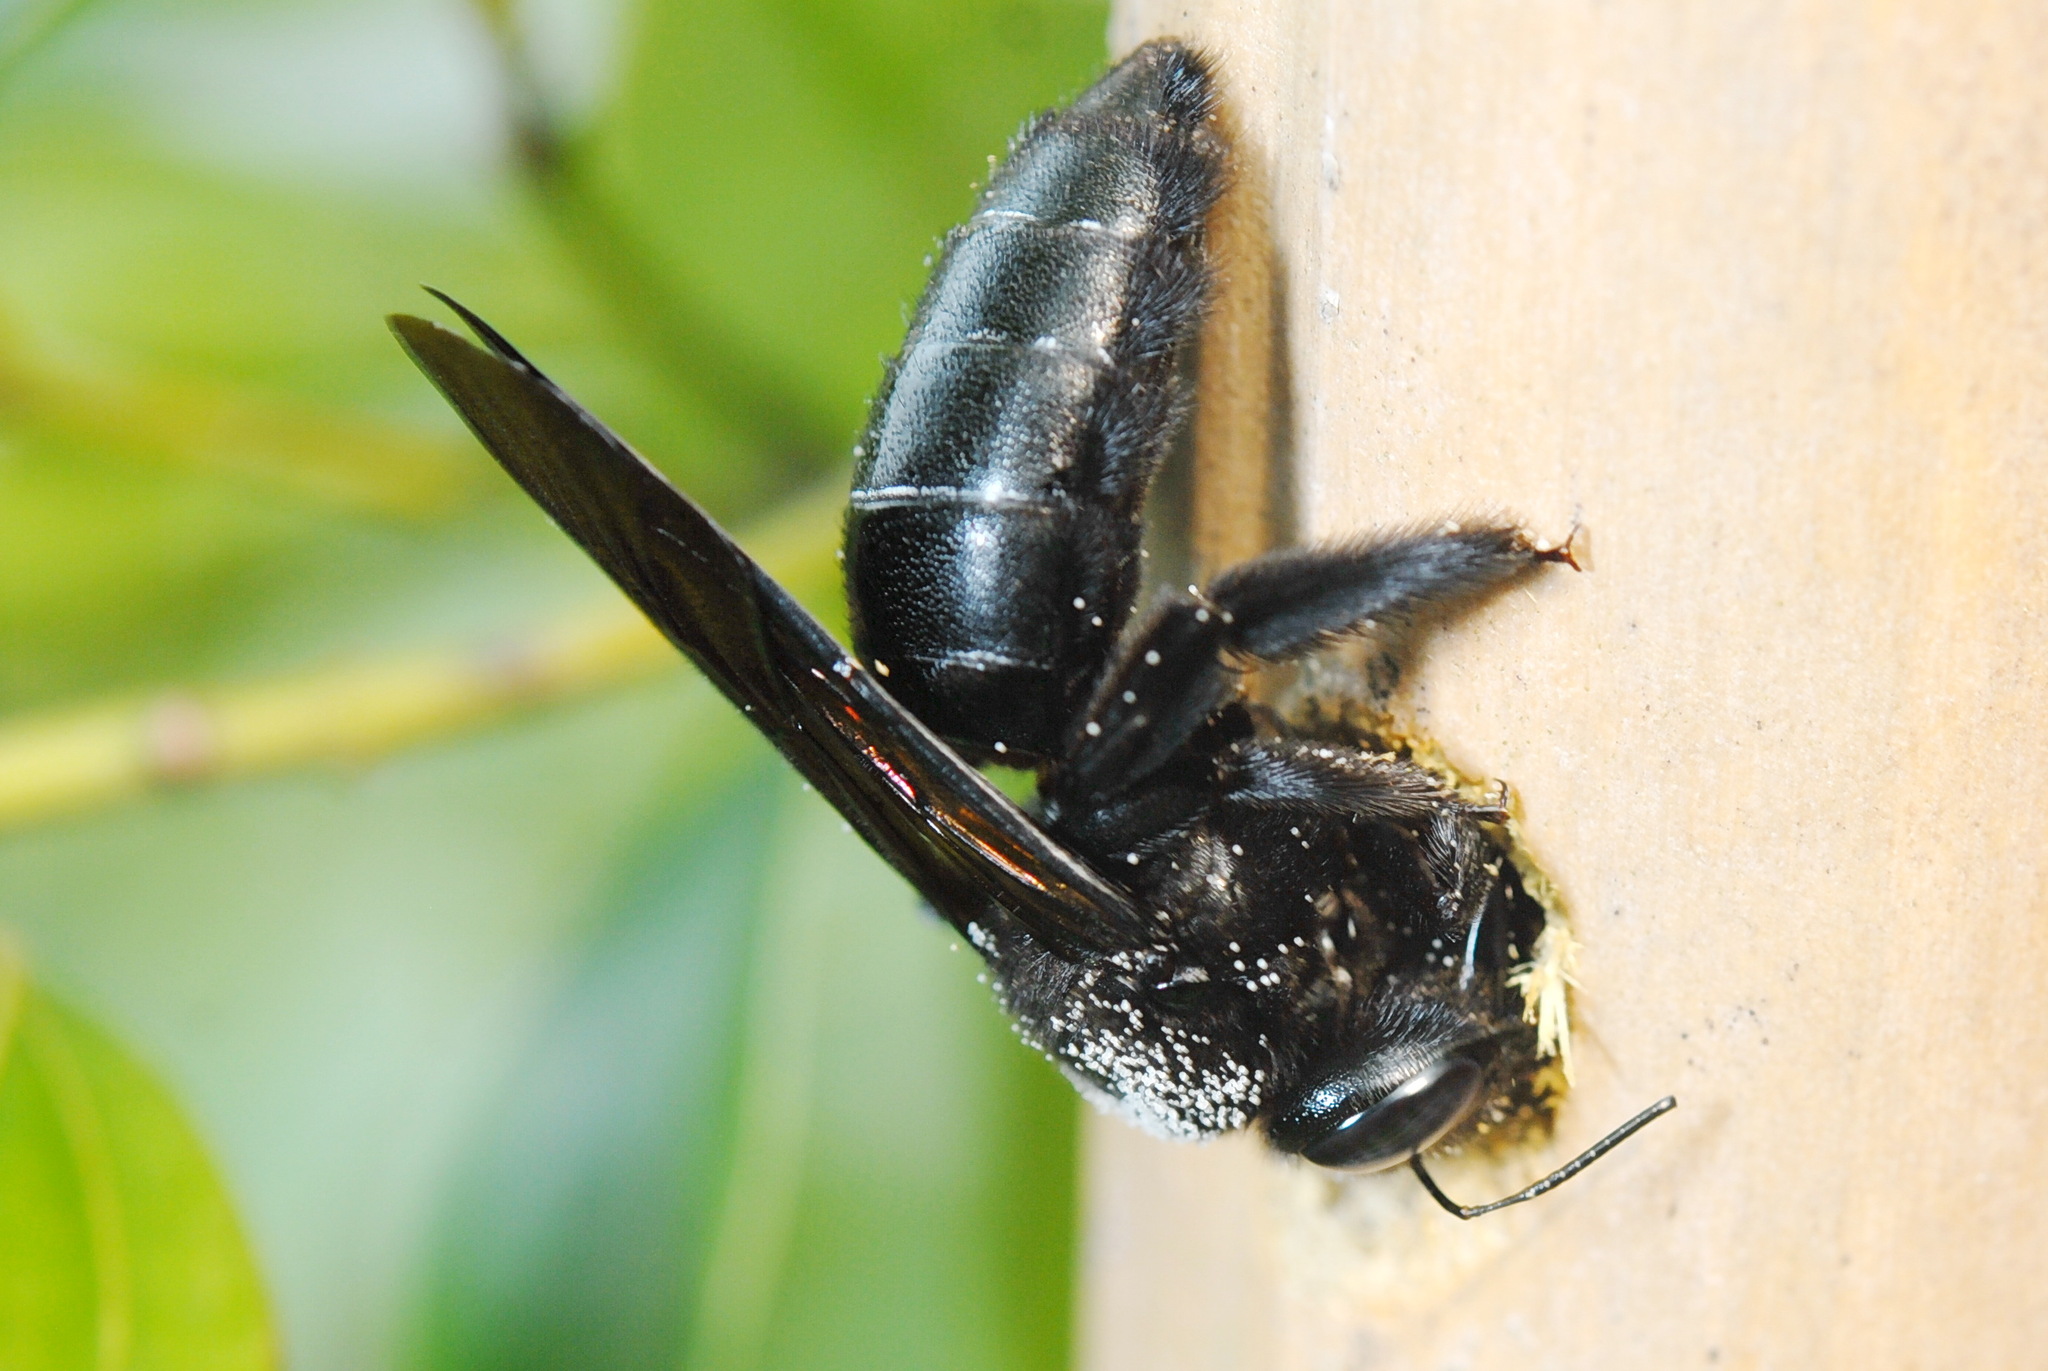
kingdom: Animalia
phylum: Arthropoda
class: Insecta
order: Hymenoptera
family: Apidae
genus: Xylocopa
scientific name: Xylocopa tranquebarorum
